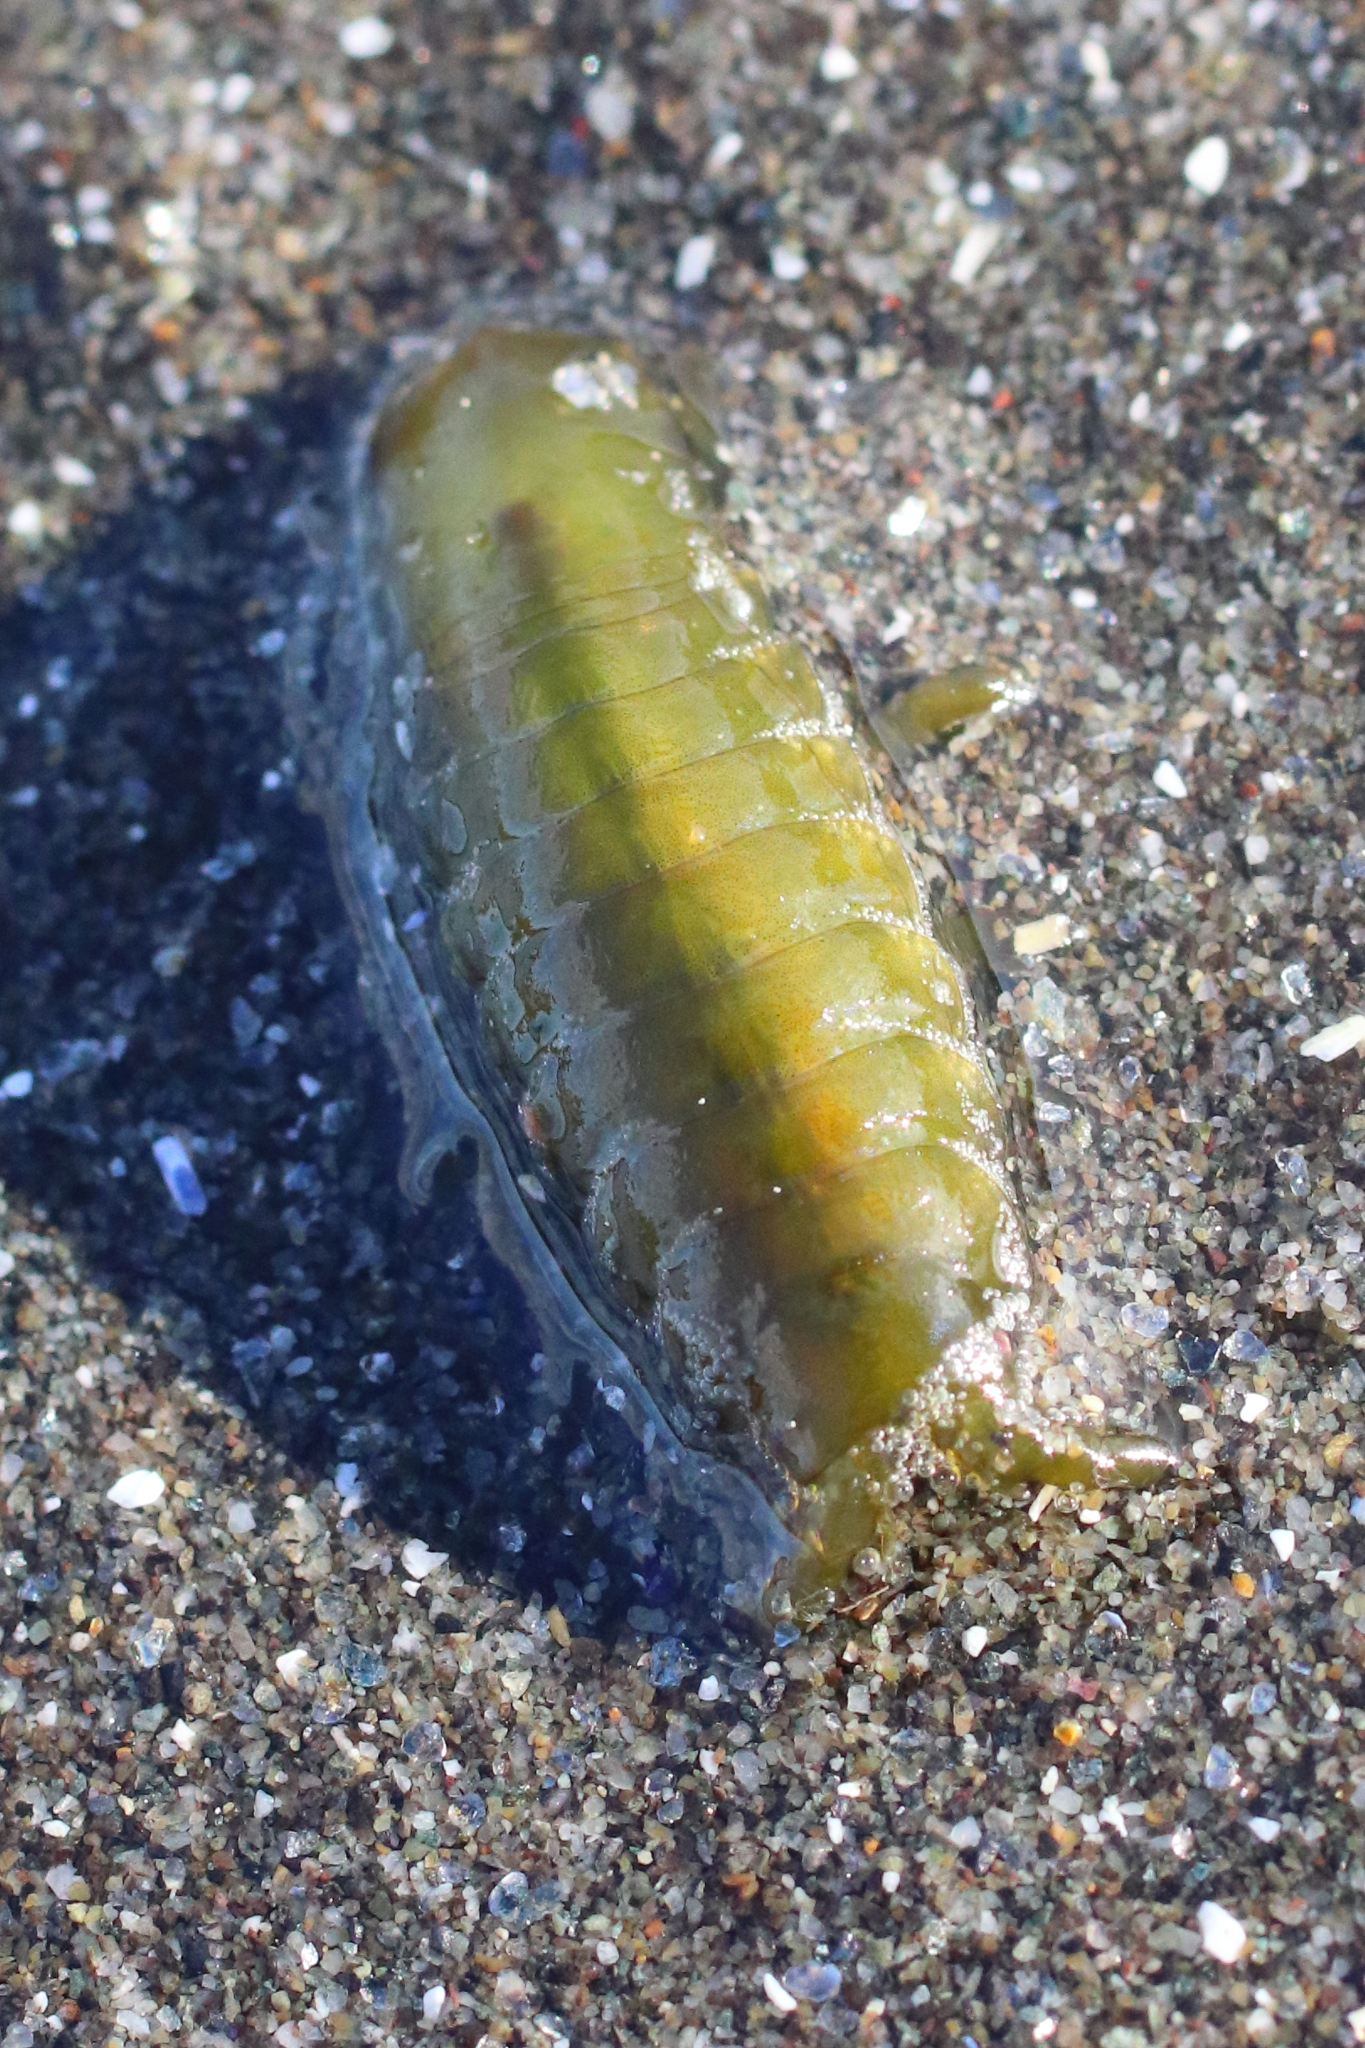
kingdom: Animalia
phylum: Arthropoda
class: Malacostraca
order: Isopoda
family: Idoteidae
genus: Pentidotea
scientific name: Pentidotea wosnesenskii
